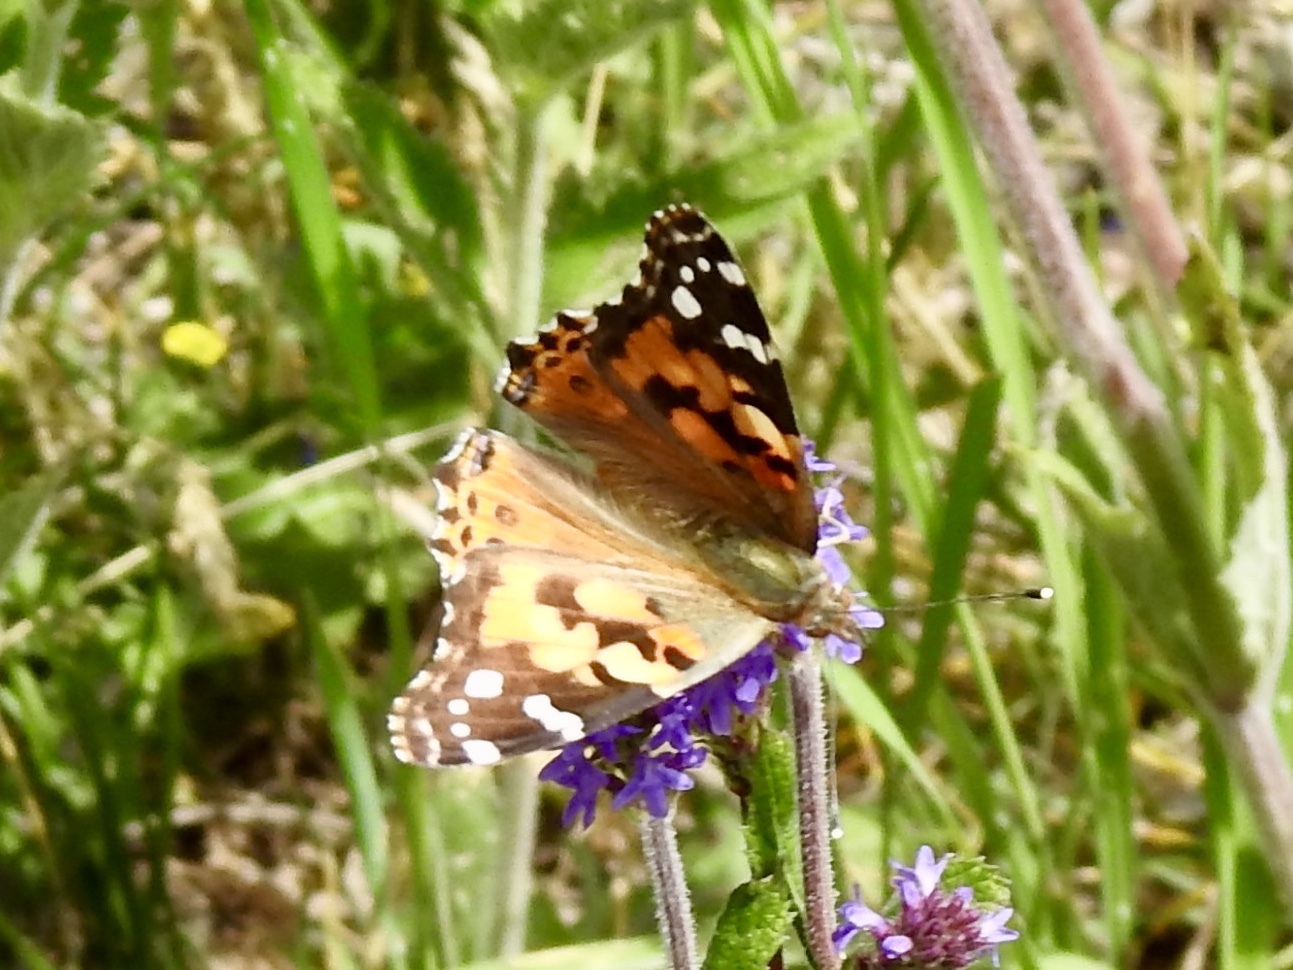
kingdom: Animalia
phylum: Arthropoda
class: Insecta
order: Lepidoptera
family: Nymphalidae
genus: Vanessa
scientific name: Vanessa cardui
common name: Painted lady
